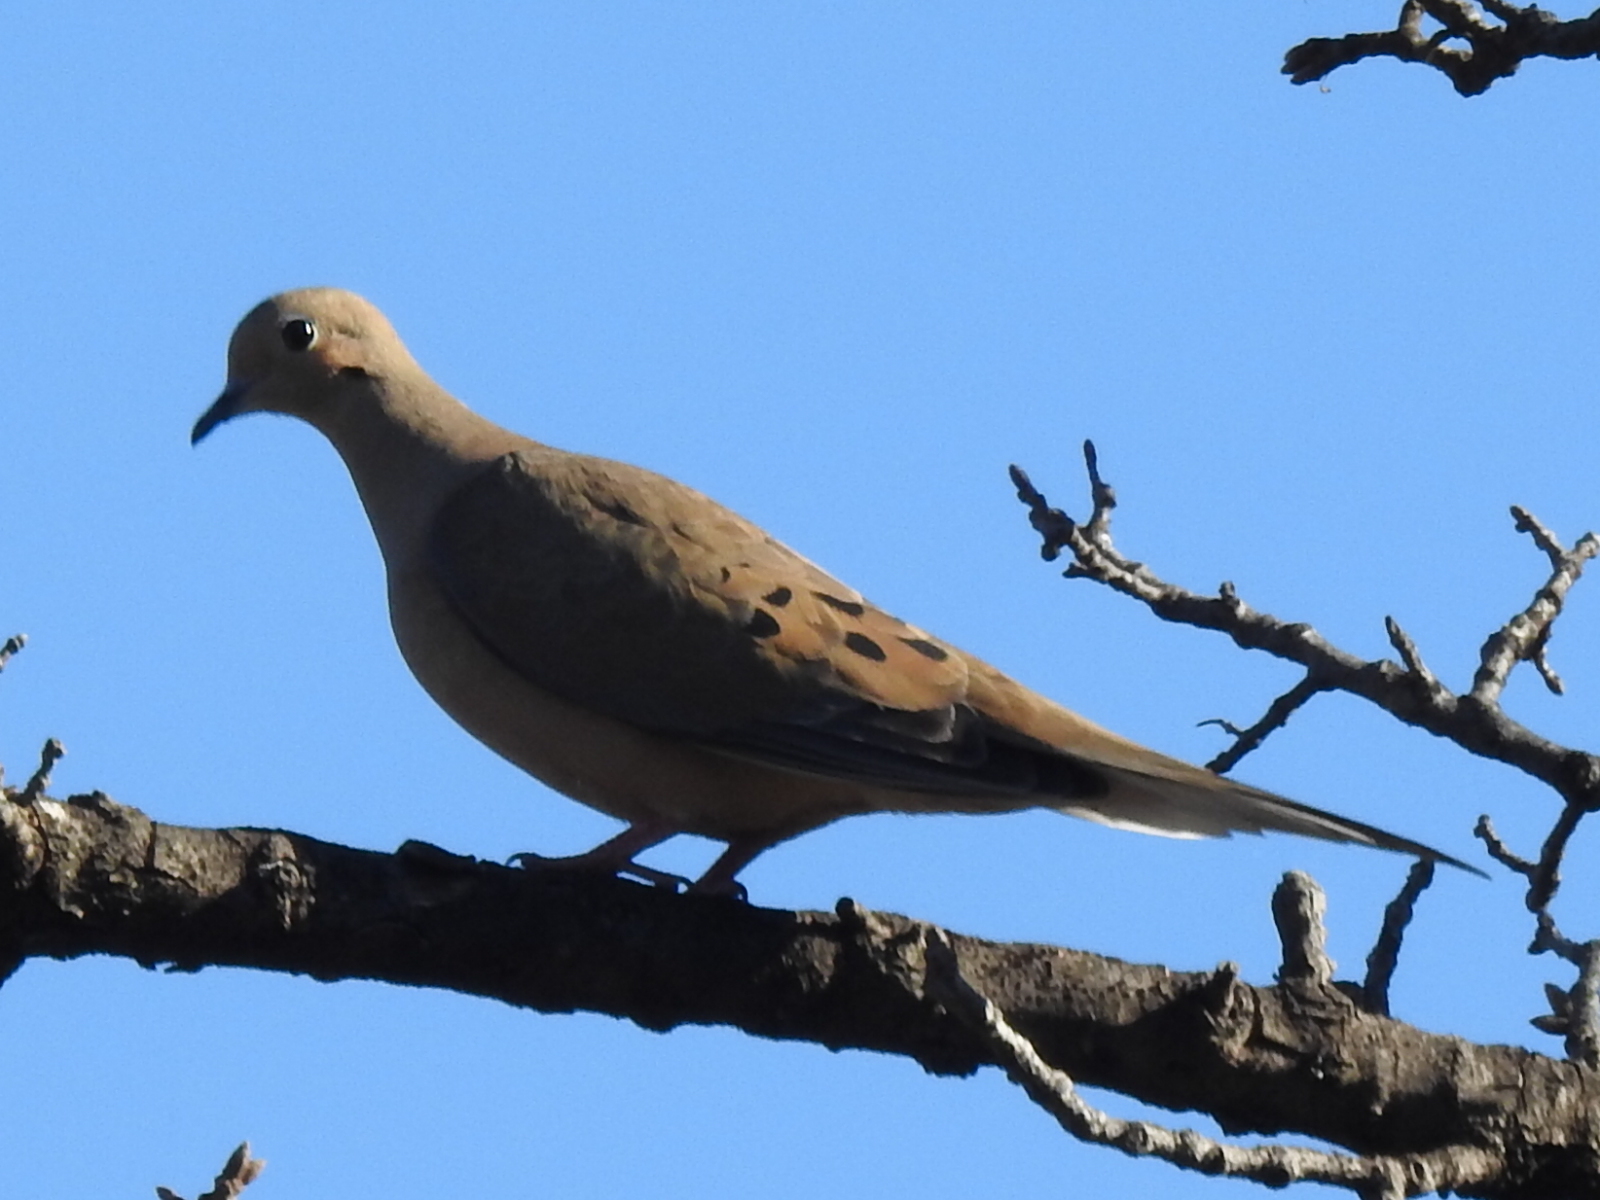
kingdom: Animalia
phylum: Chordata
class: Aves
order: Columbiformes
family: Columbidae
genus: Zenaida
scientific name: Zenaida macroura
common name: Mourning dove
